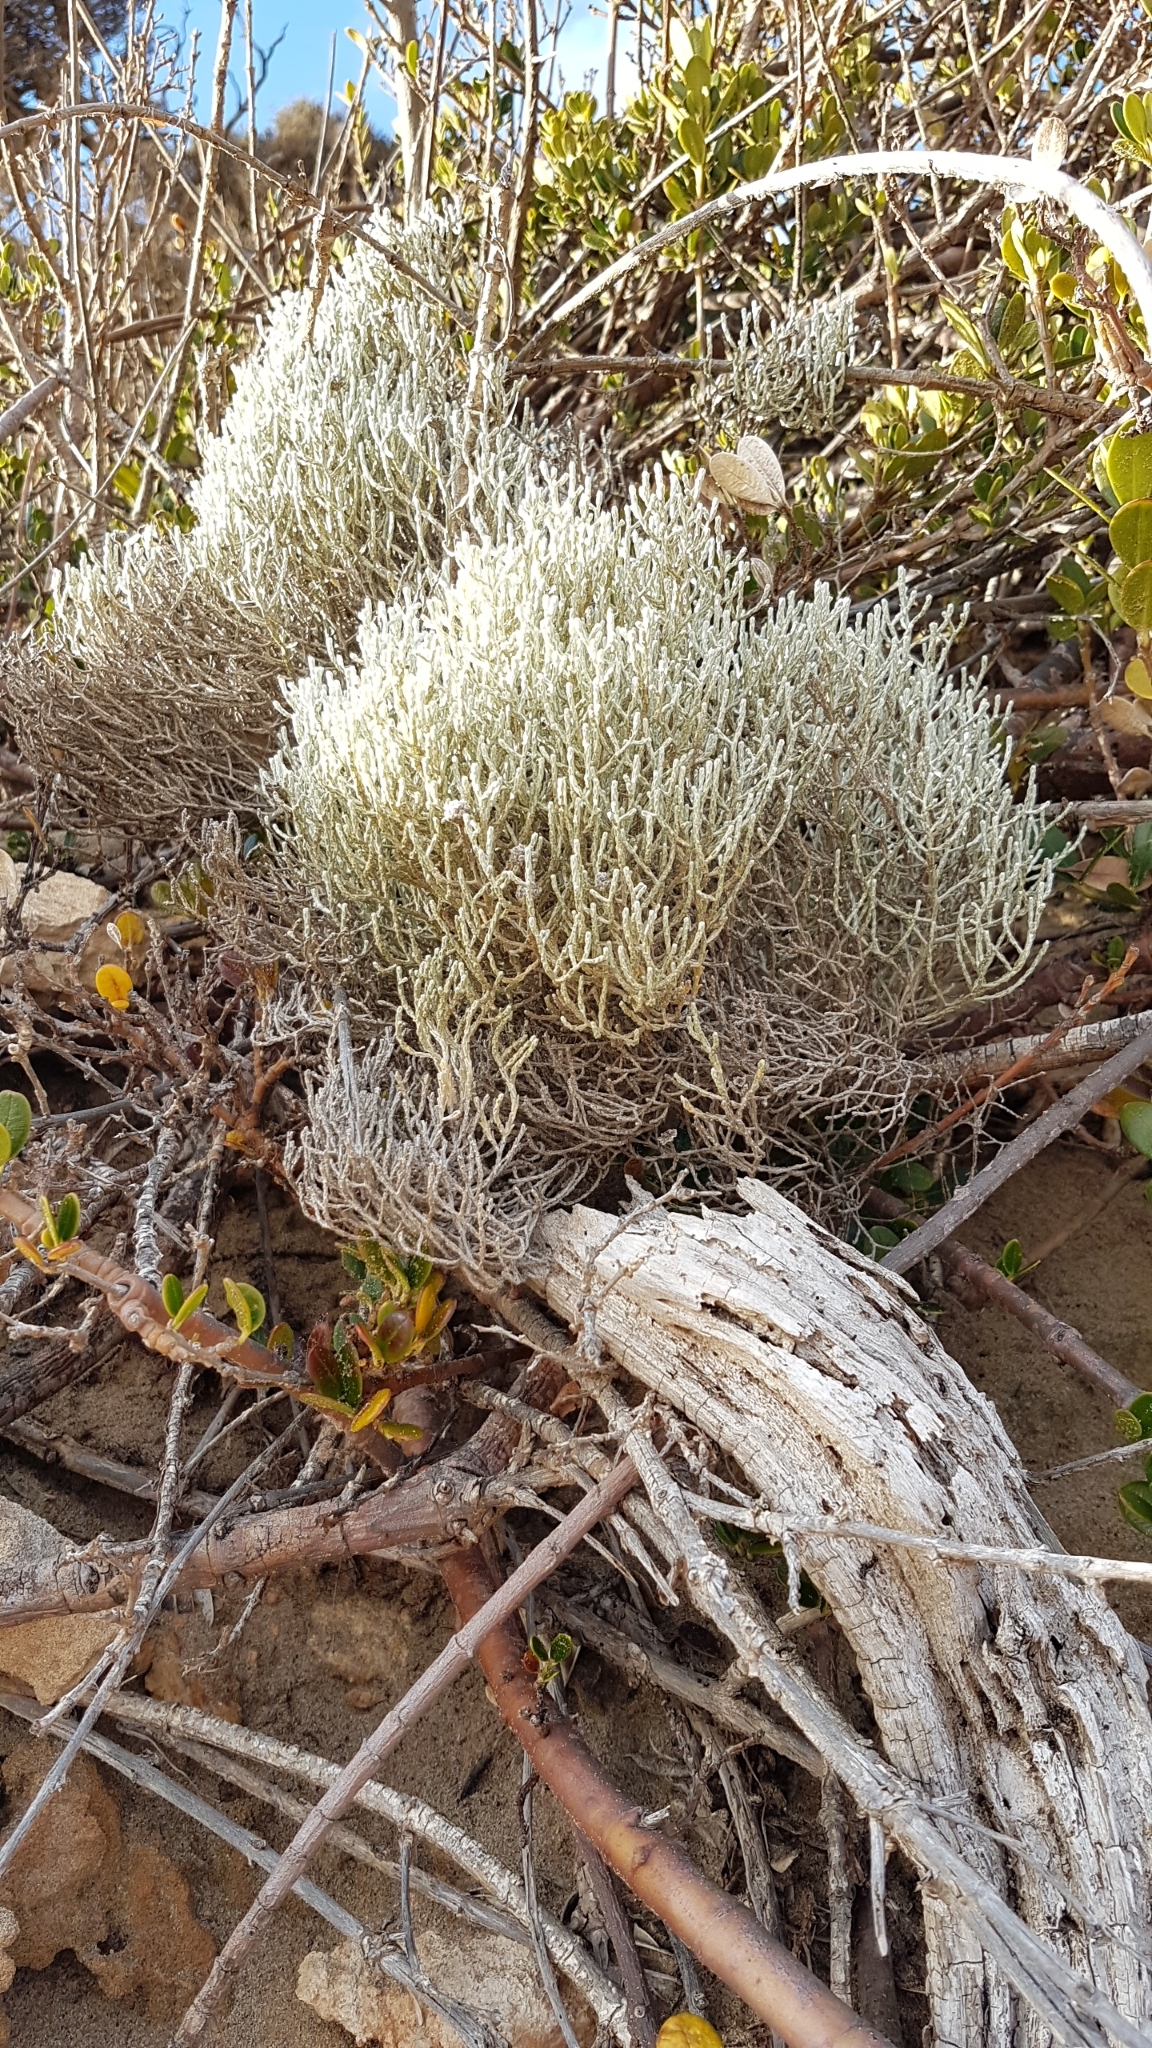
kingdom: Plantae
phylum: Tracheophyta
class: Magnoliopsida
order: Asterales
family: Asteraceae
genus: Calocephalus
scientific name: Calocephalus brownii
